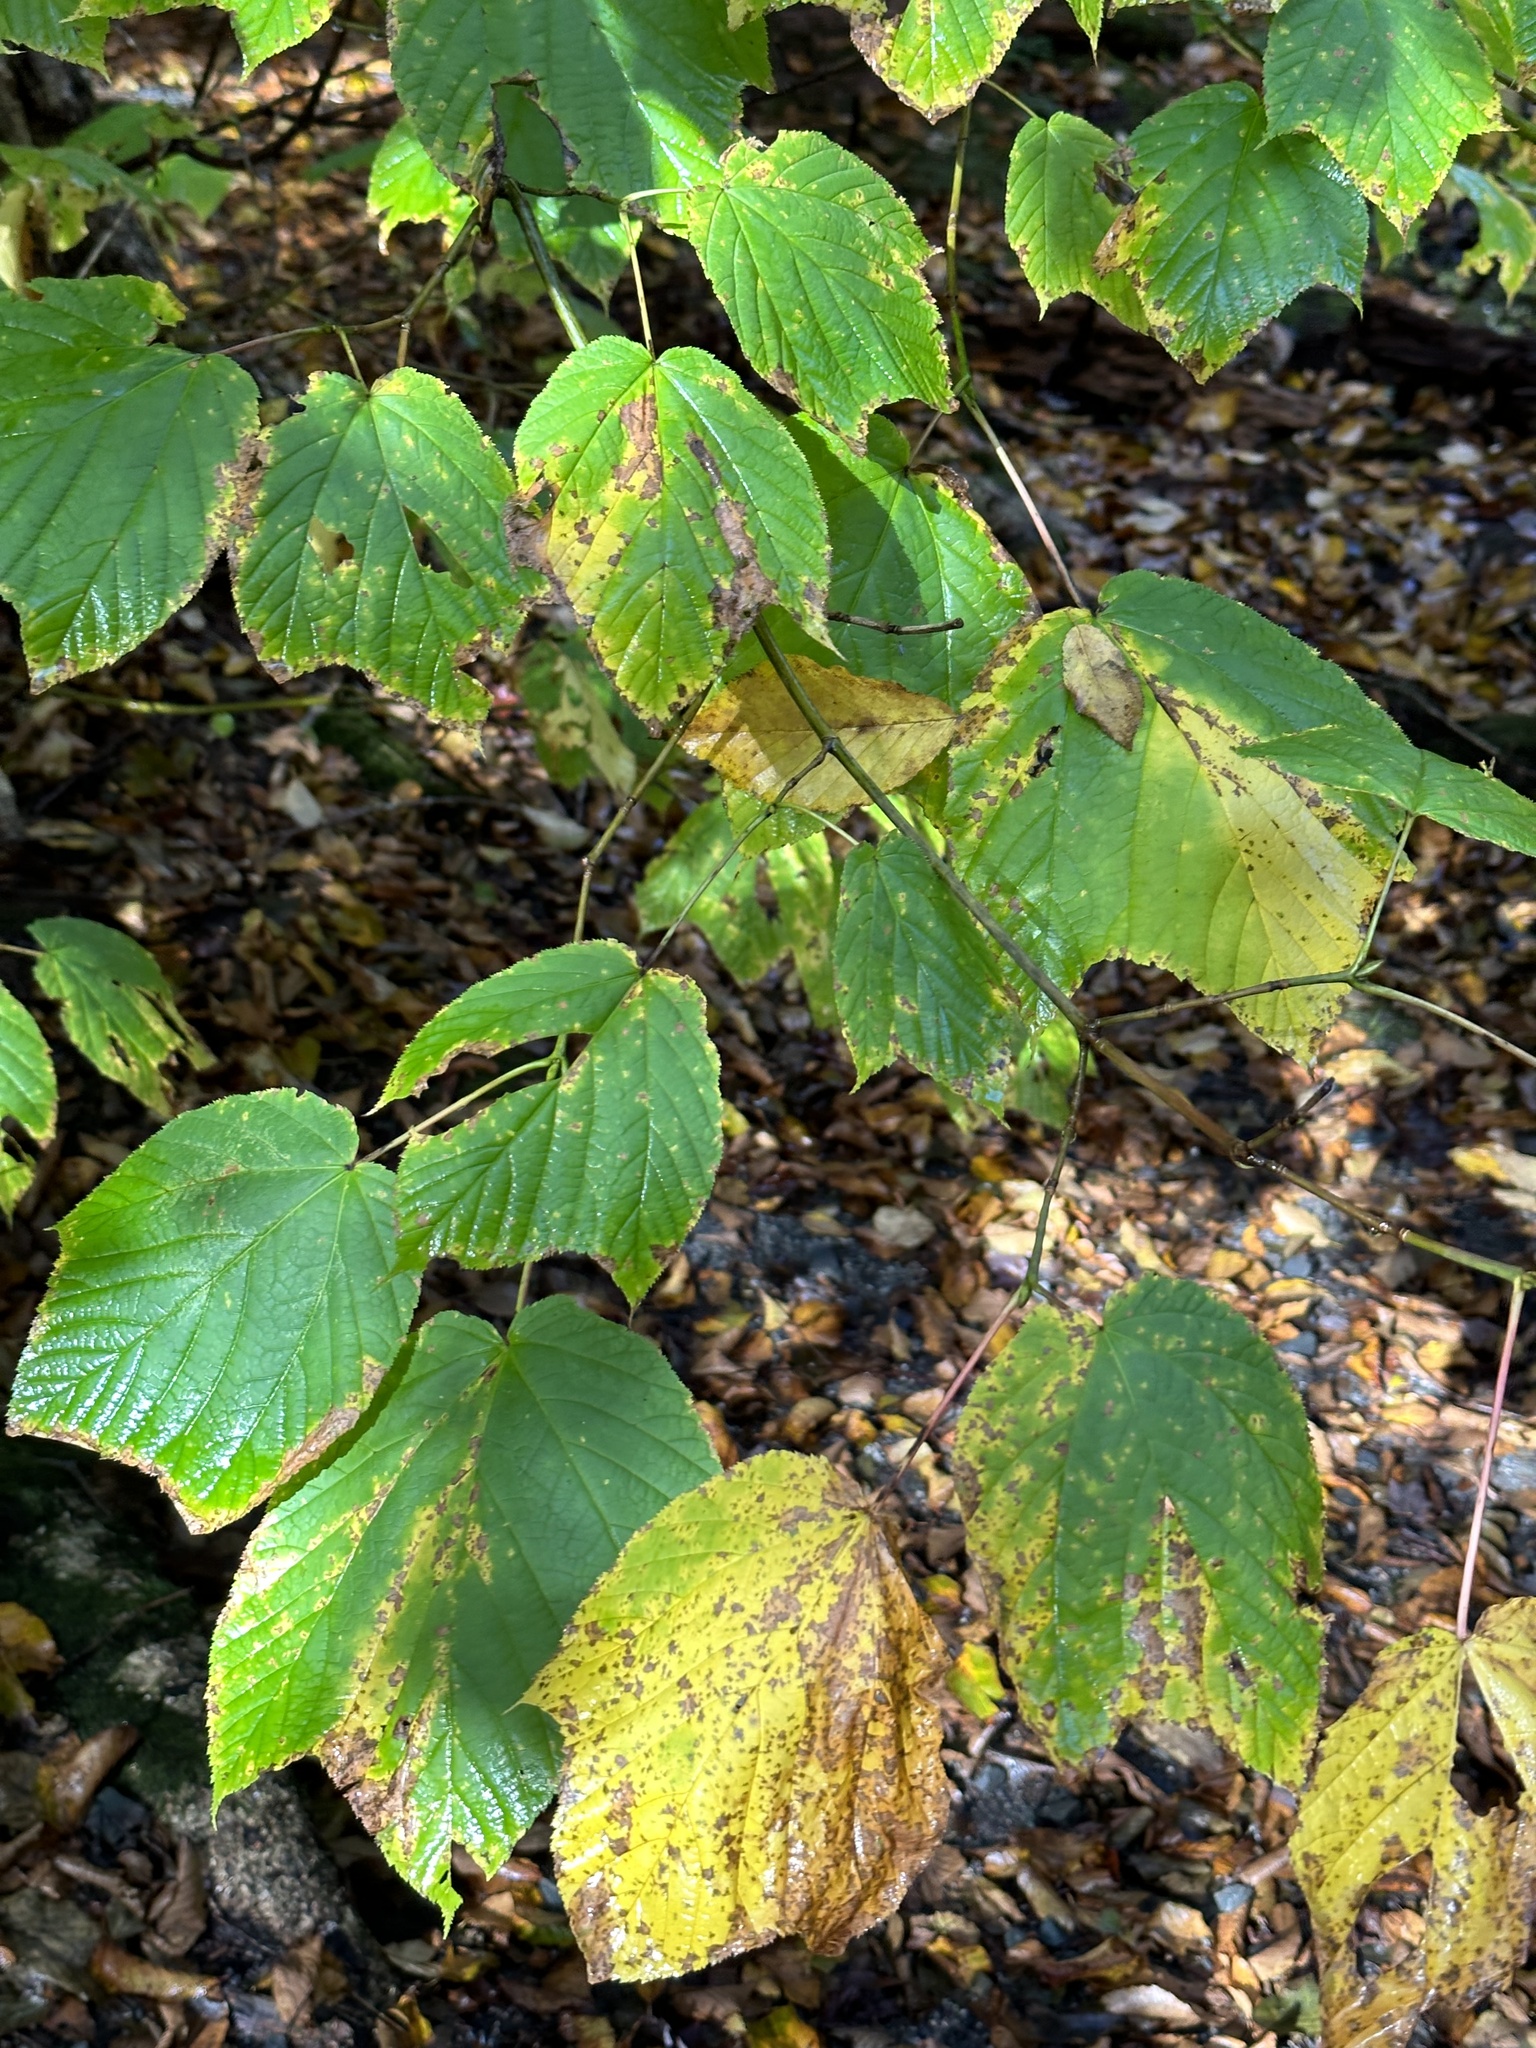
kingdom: Plantae
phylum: Tracheophyta
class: Magnoliopsida
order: Sapindales
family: Sapindaceae
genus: Acer
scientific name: Acer pensylvanicum
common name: Moosewood
